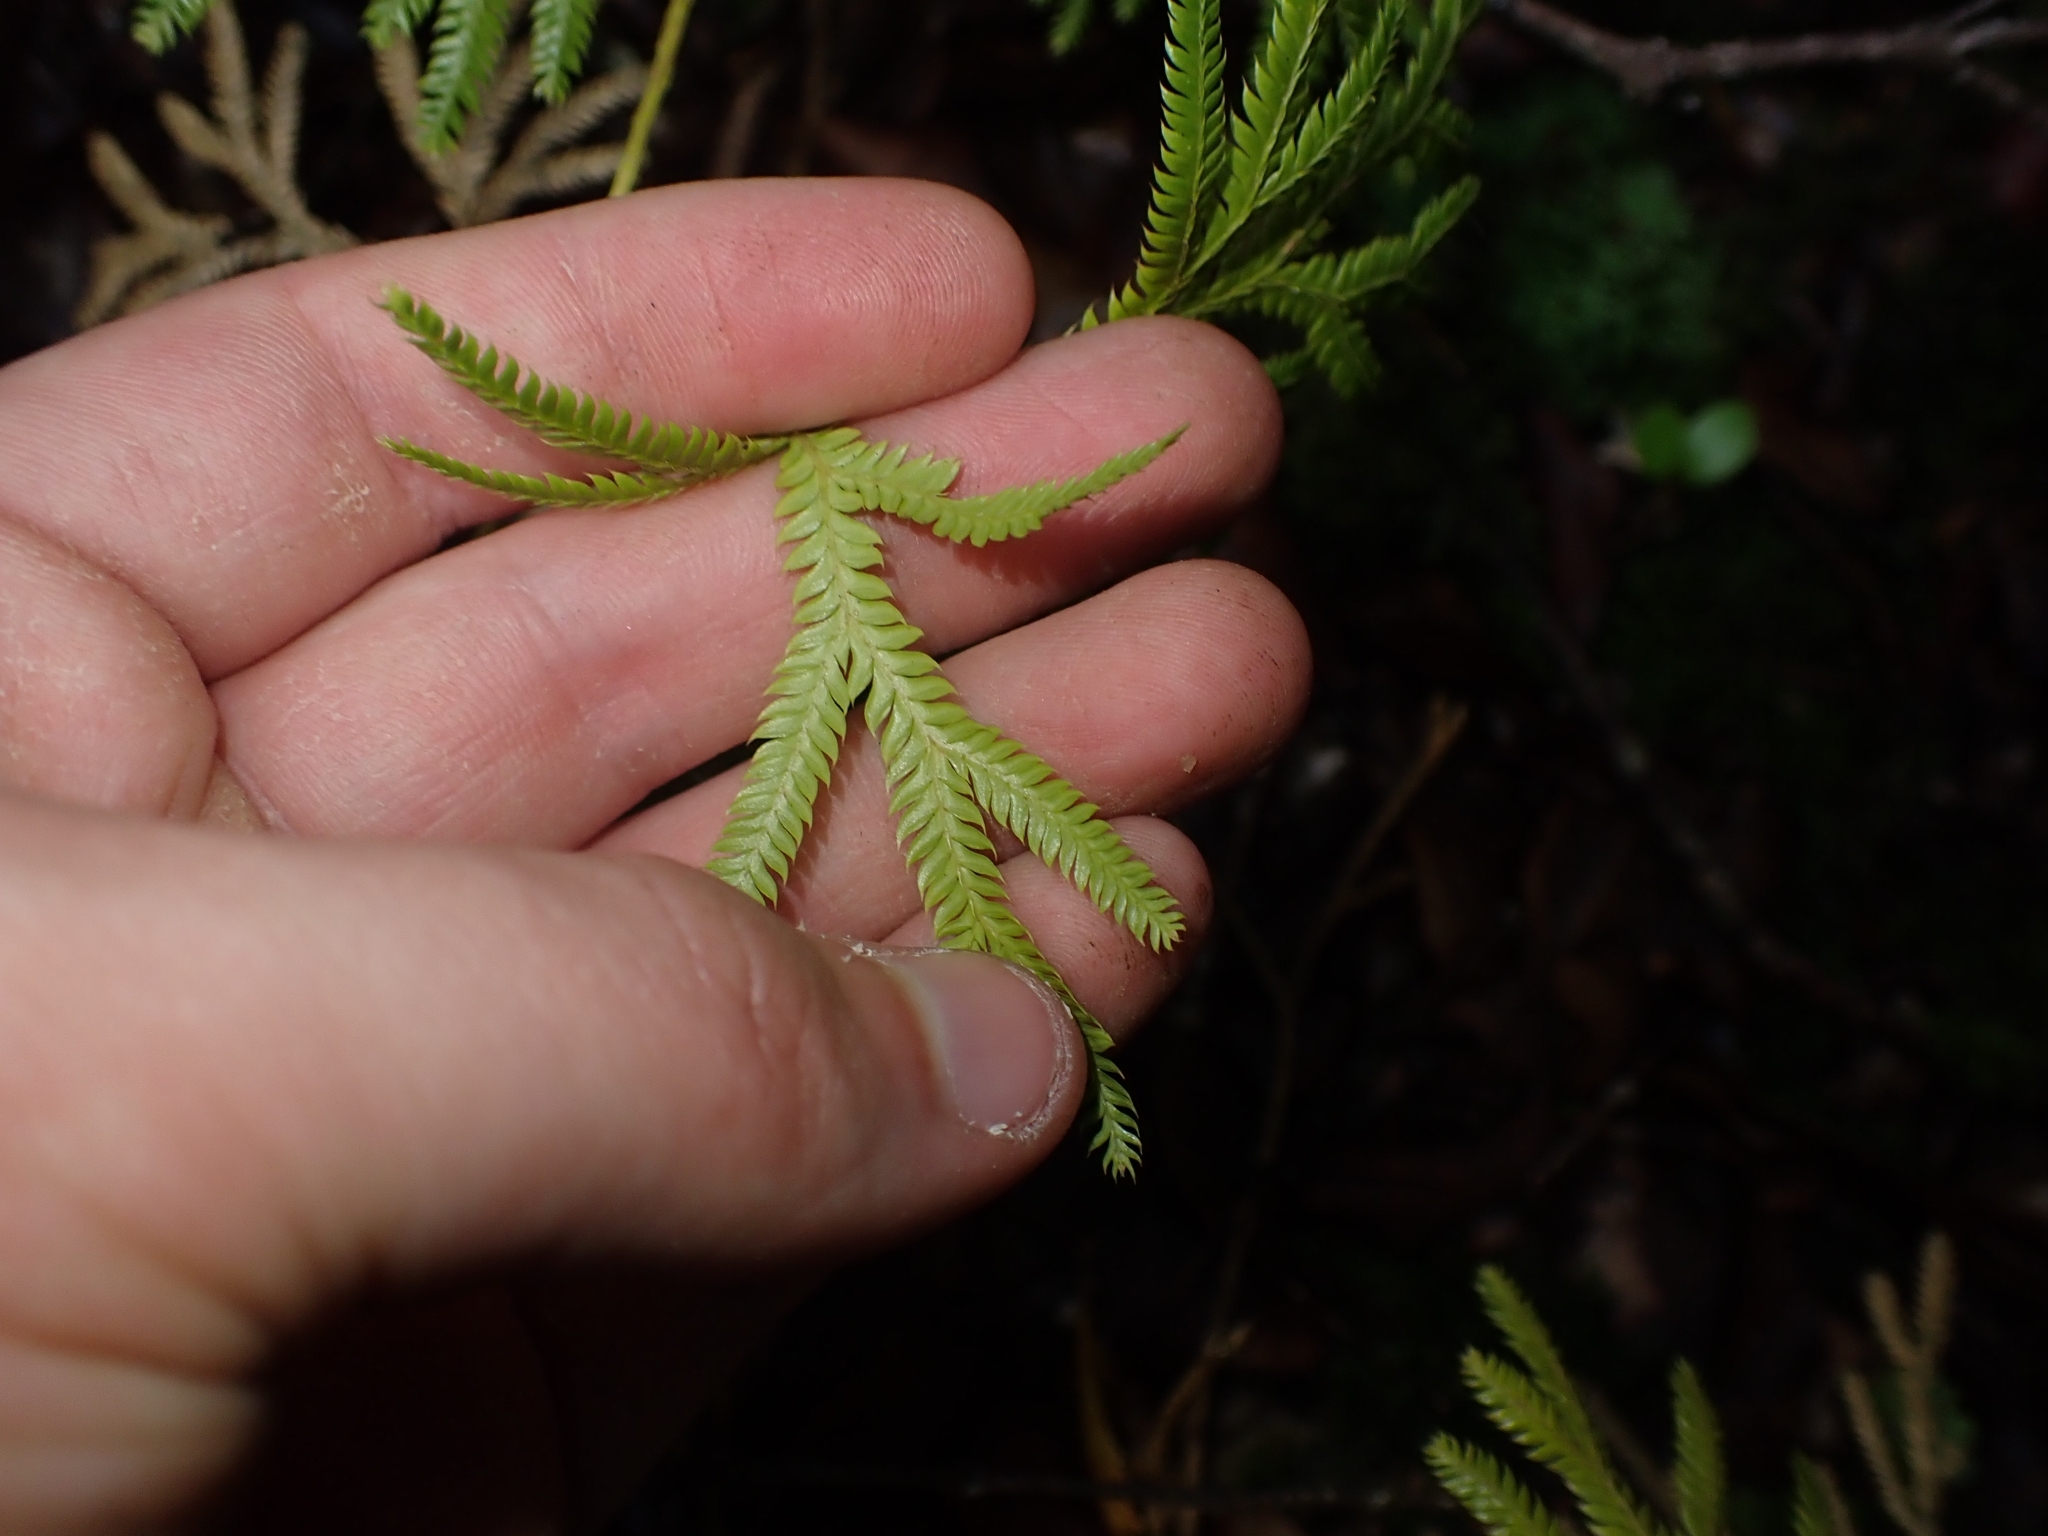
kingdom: Plantae
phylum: Tracheophyta
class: Lycopodiopsida
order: Lycopodiales
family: Lycopodiaceae
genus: Lycopodium
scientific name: Lycopodium volubile
